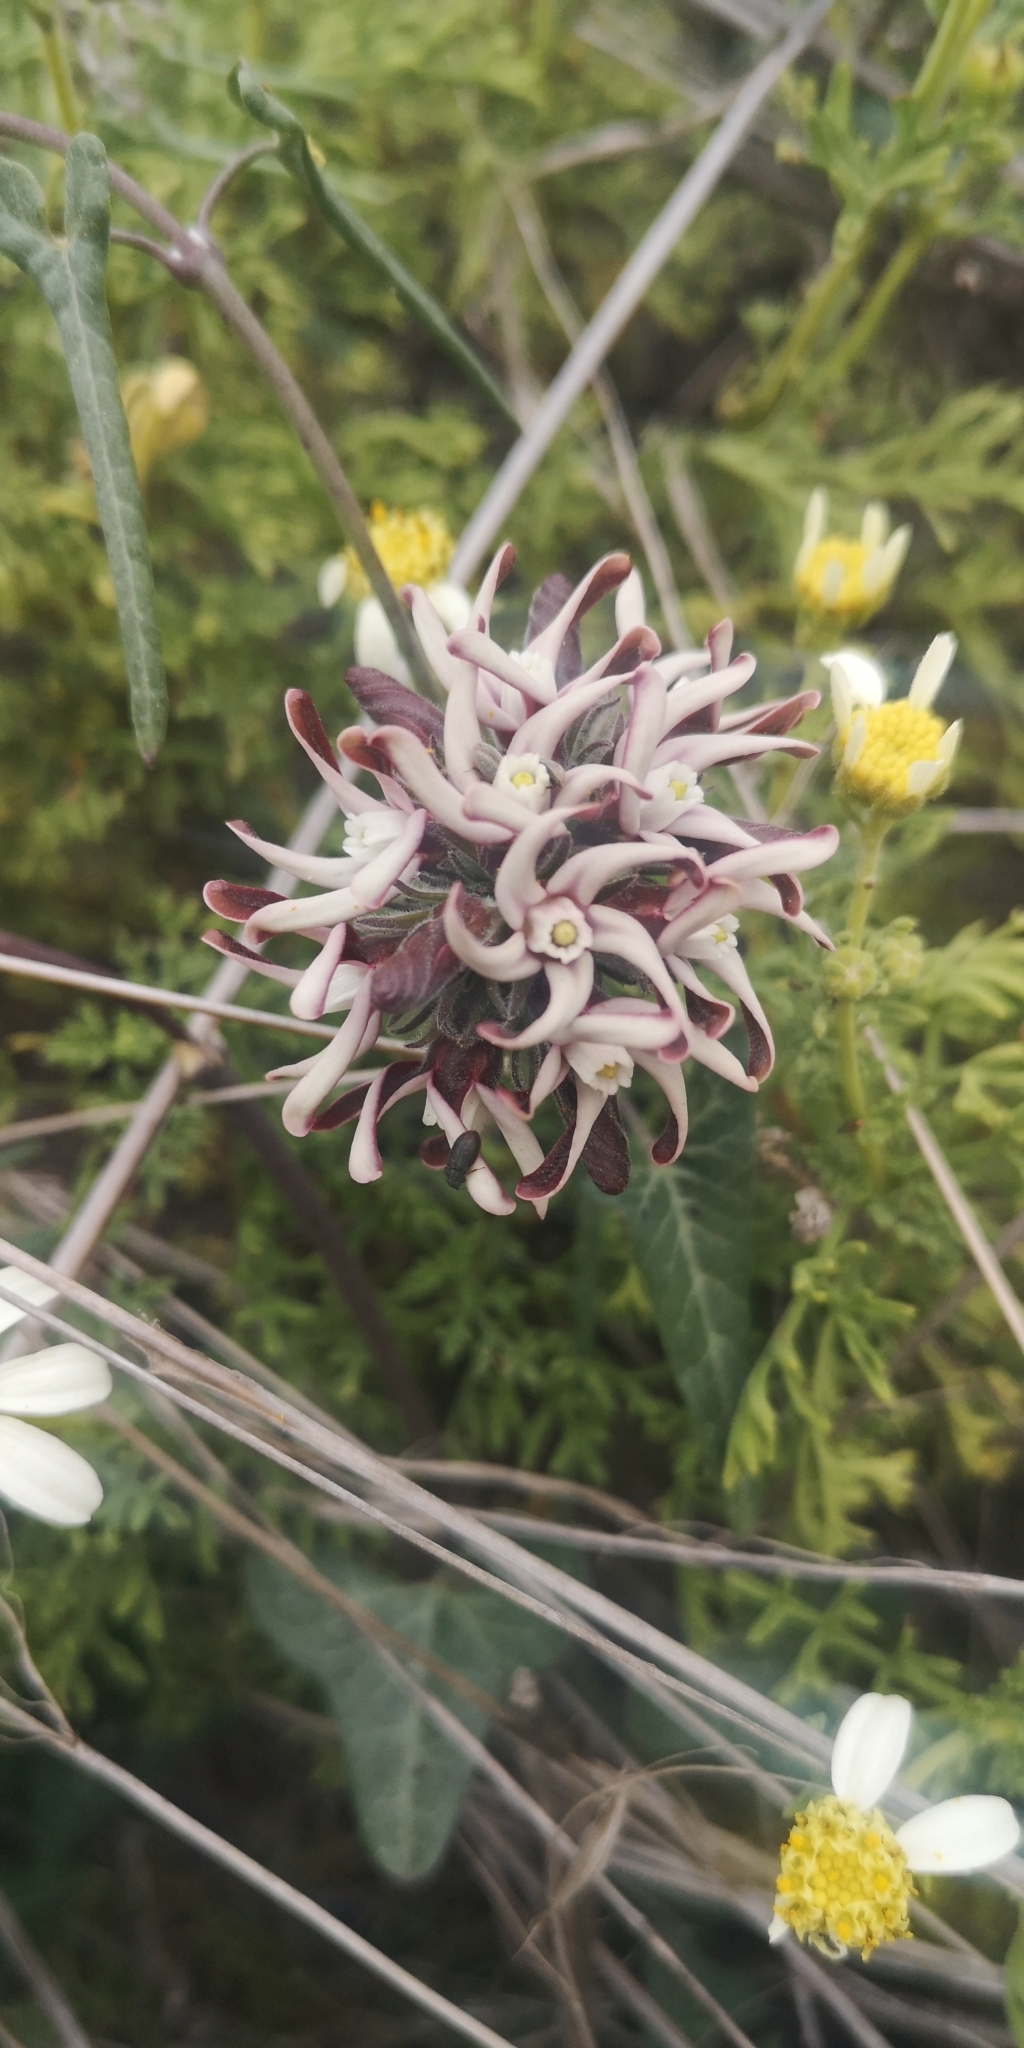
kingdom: Plantae
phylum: Tracheophyta
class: Magnoliopsida
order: Gentianales
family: Apocynaceae
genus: Tweedia
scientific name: Tweedia stipitata
